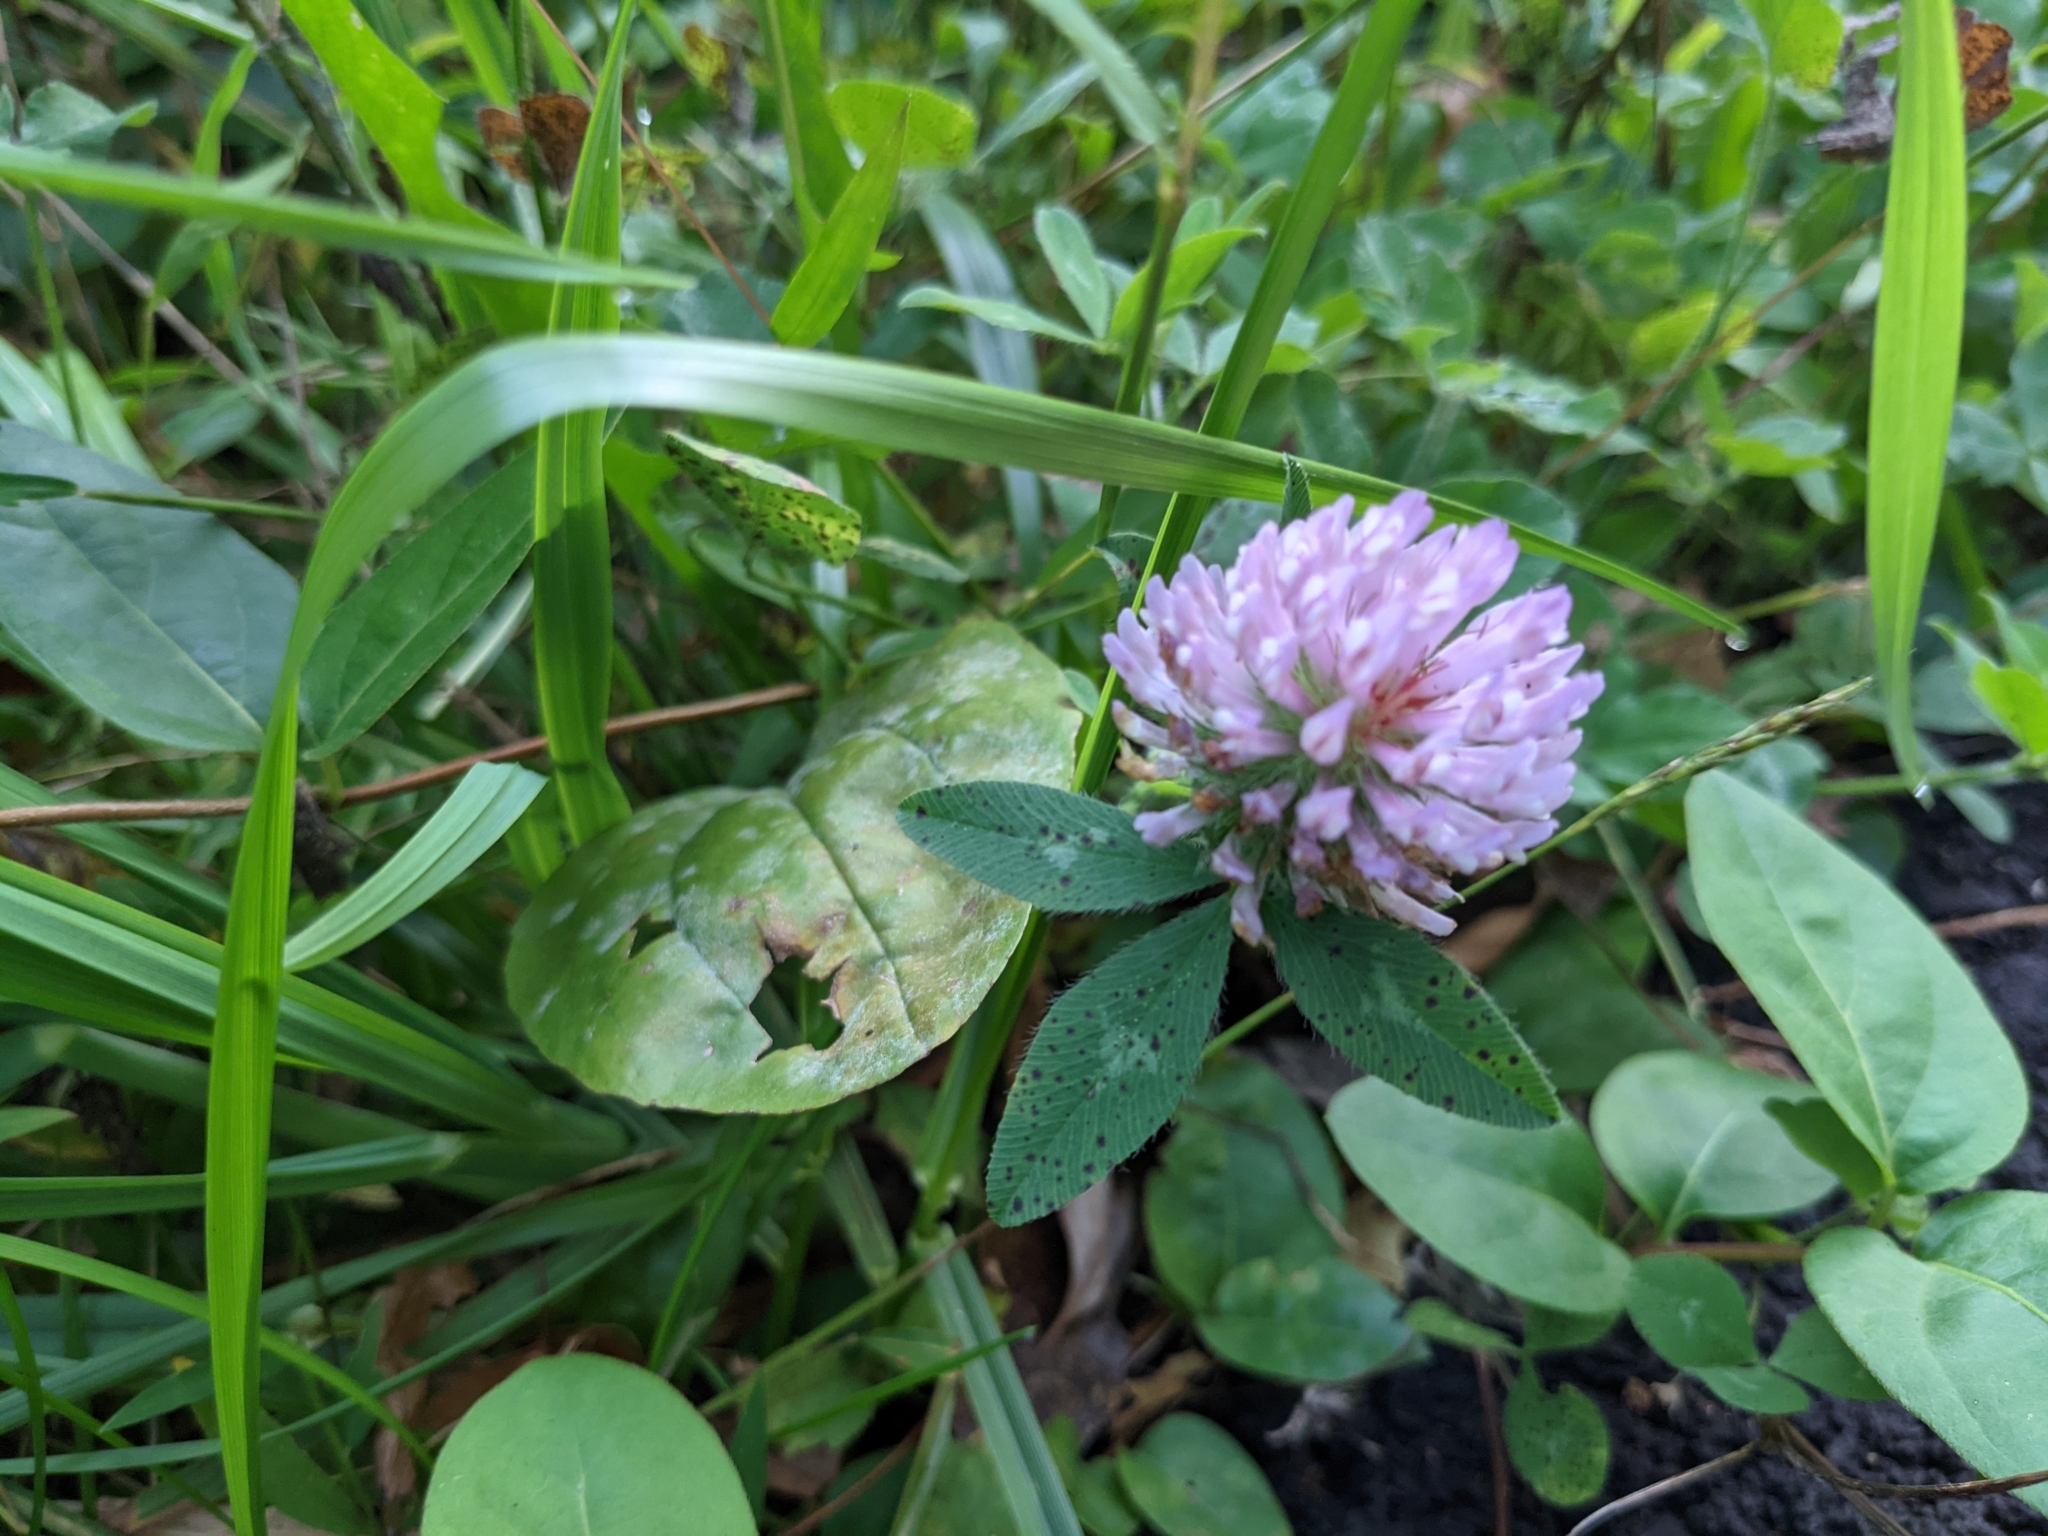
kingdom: Plantae
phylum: Tracheophyta
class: Magnoliopsida
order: Fabales
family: Fabaceae
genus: Trifolium
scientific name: Trifolium pratense
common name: Red clover
